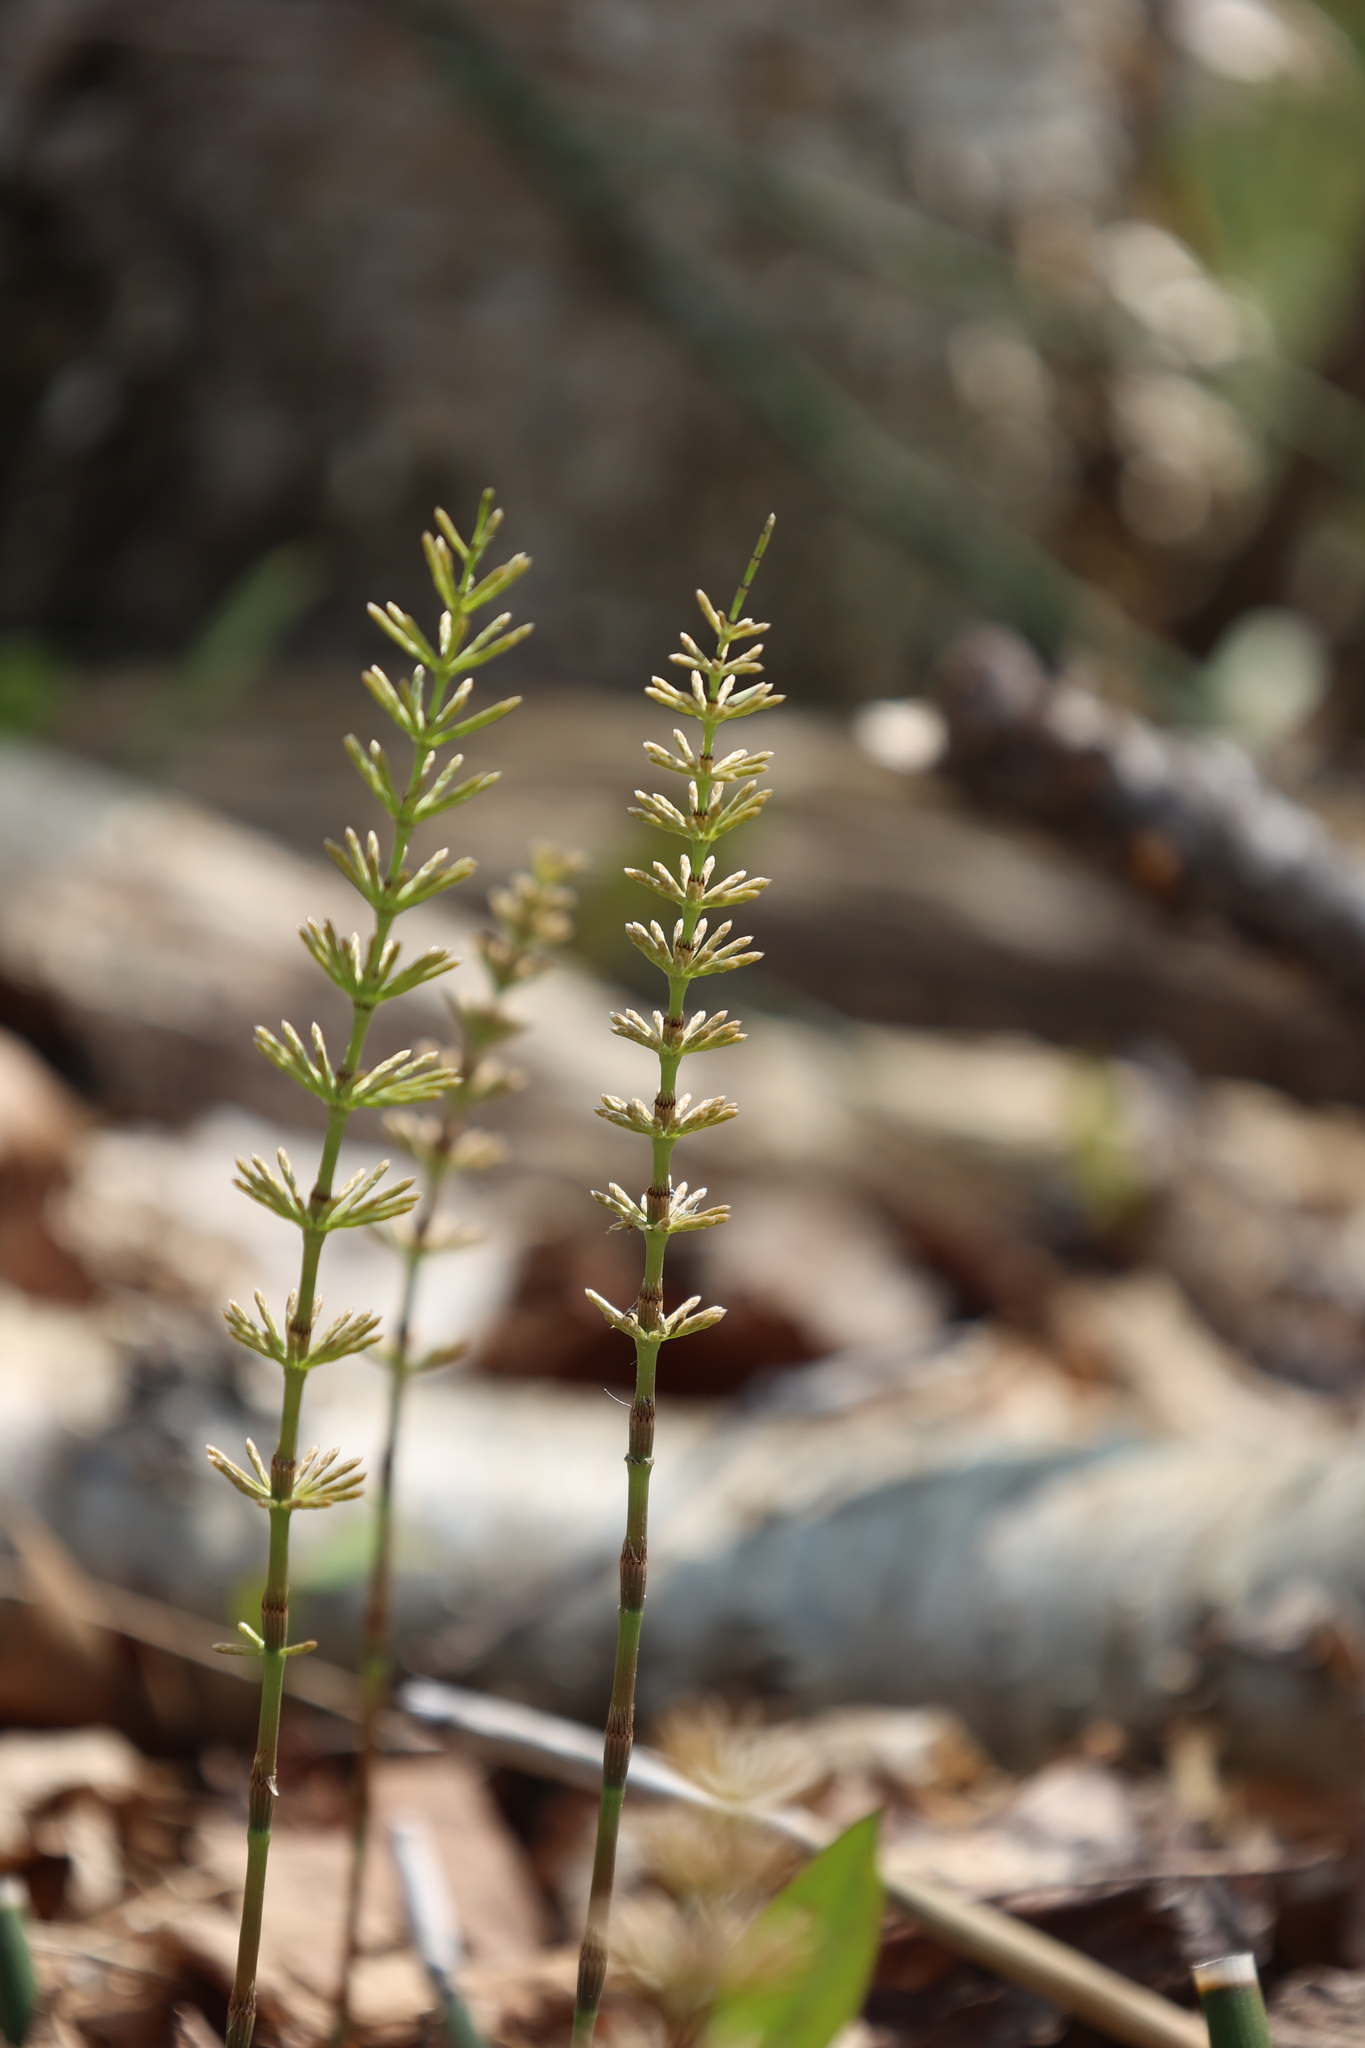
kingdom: Plantae
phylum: Tracheophyta
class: Polypodiopsida
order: Equisetales
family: Equisetaceae
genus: Equisetum
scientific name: Equisetum pratense
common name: Meadow horsetail
